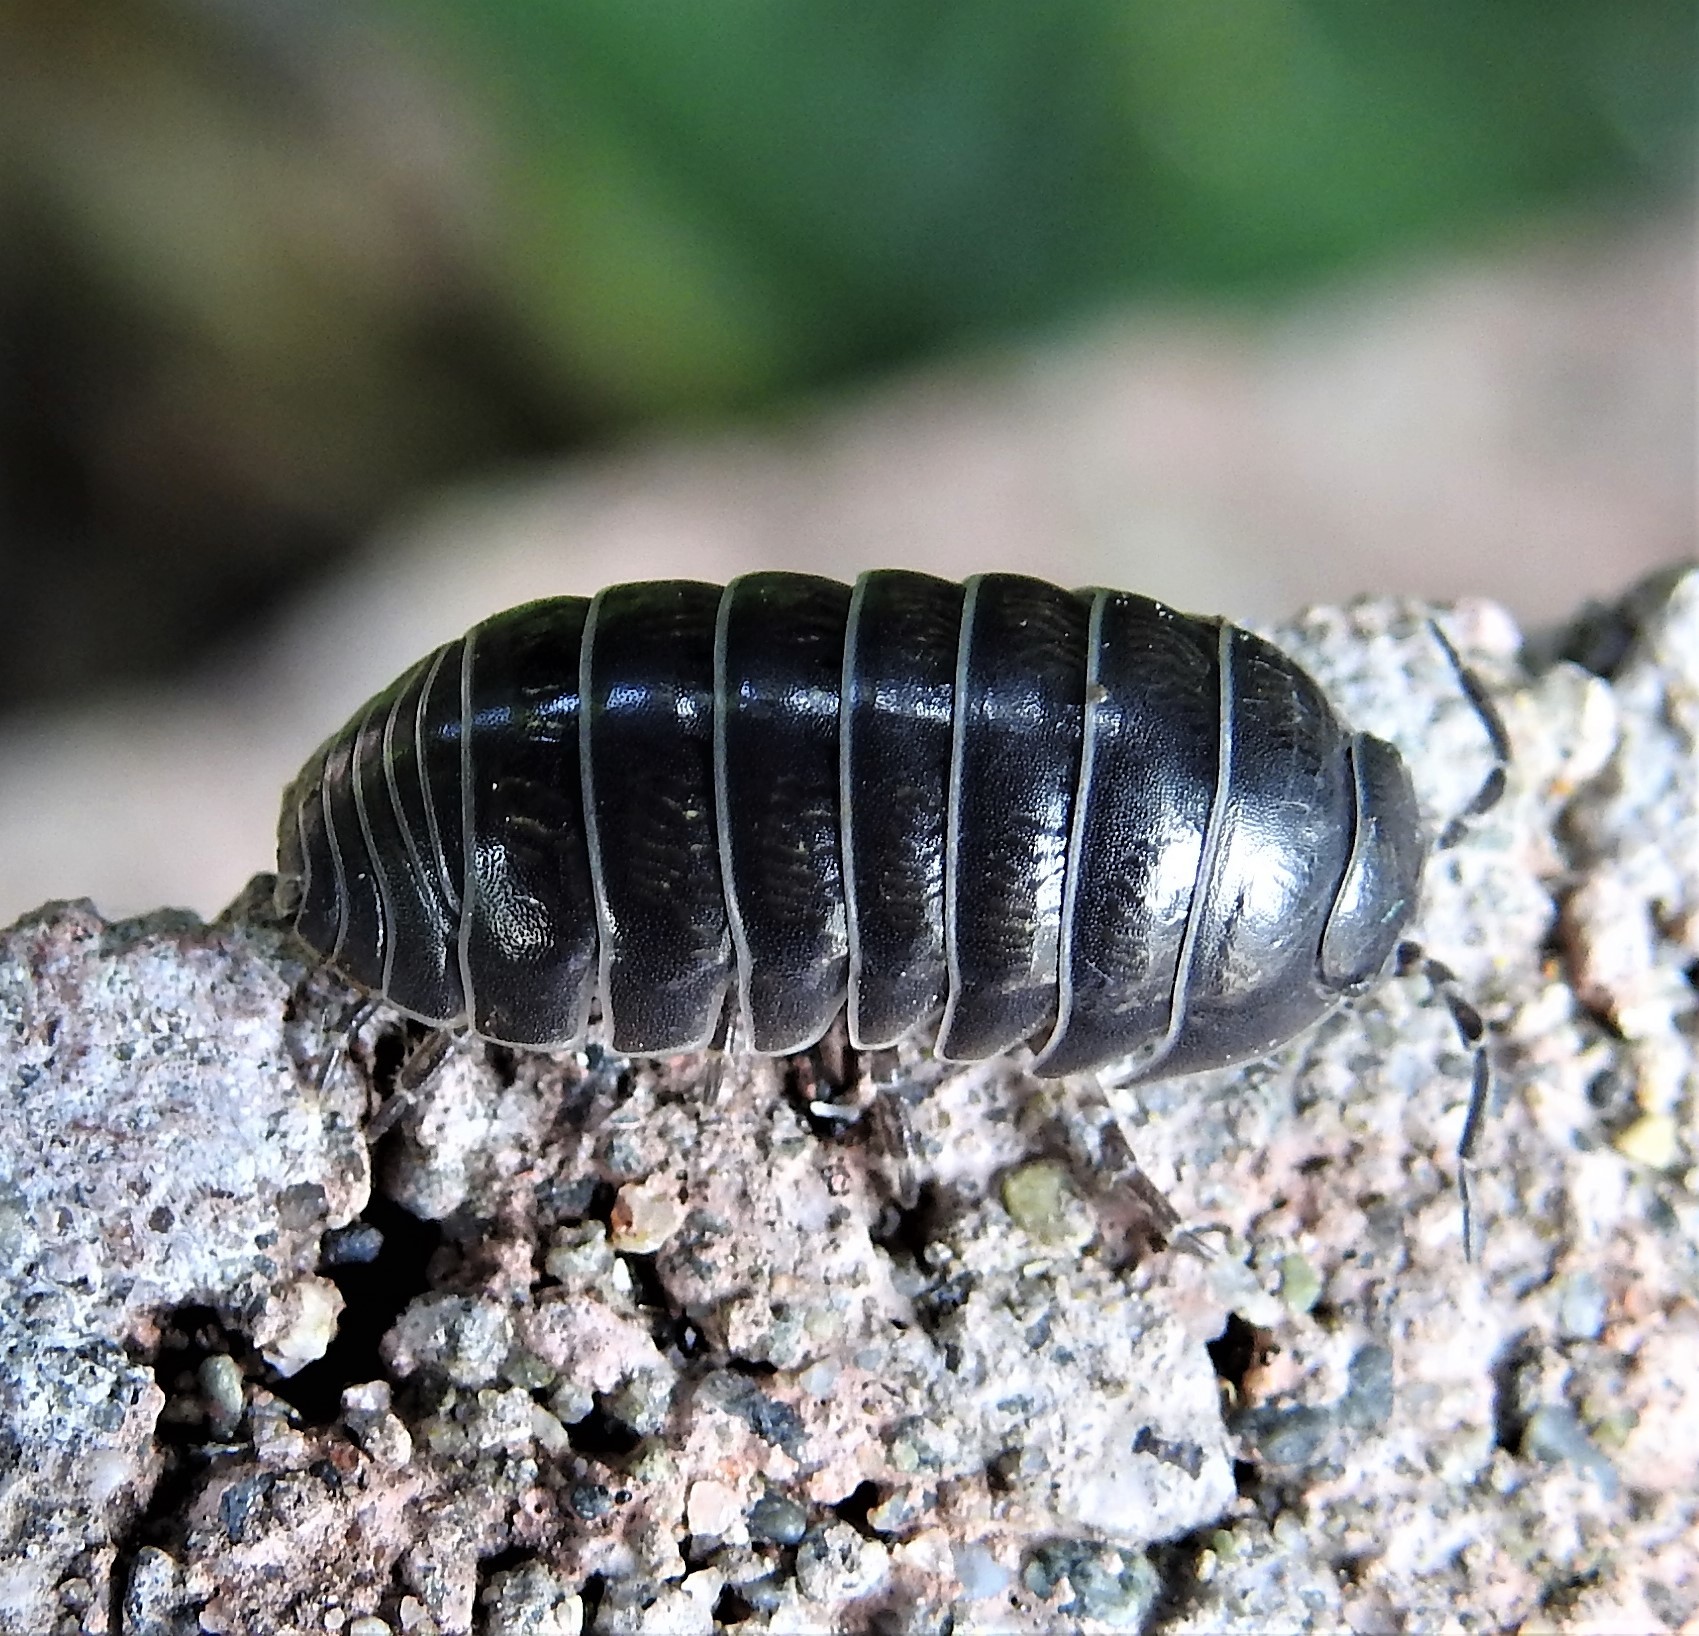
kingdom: Animalia
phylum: Arthropoda
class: Malacostraca
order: Isopoda
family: Armadillidiidae
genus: Armadillidium
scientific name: Armadillidium vulgare
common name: Common pill woodlouse
